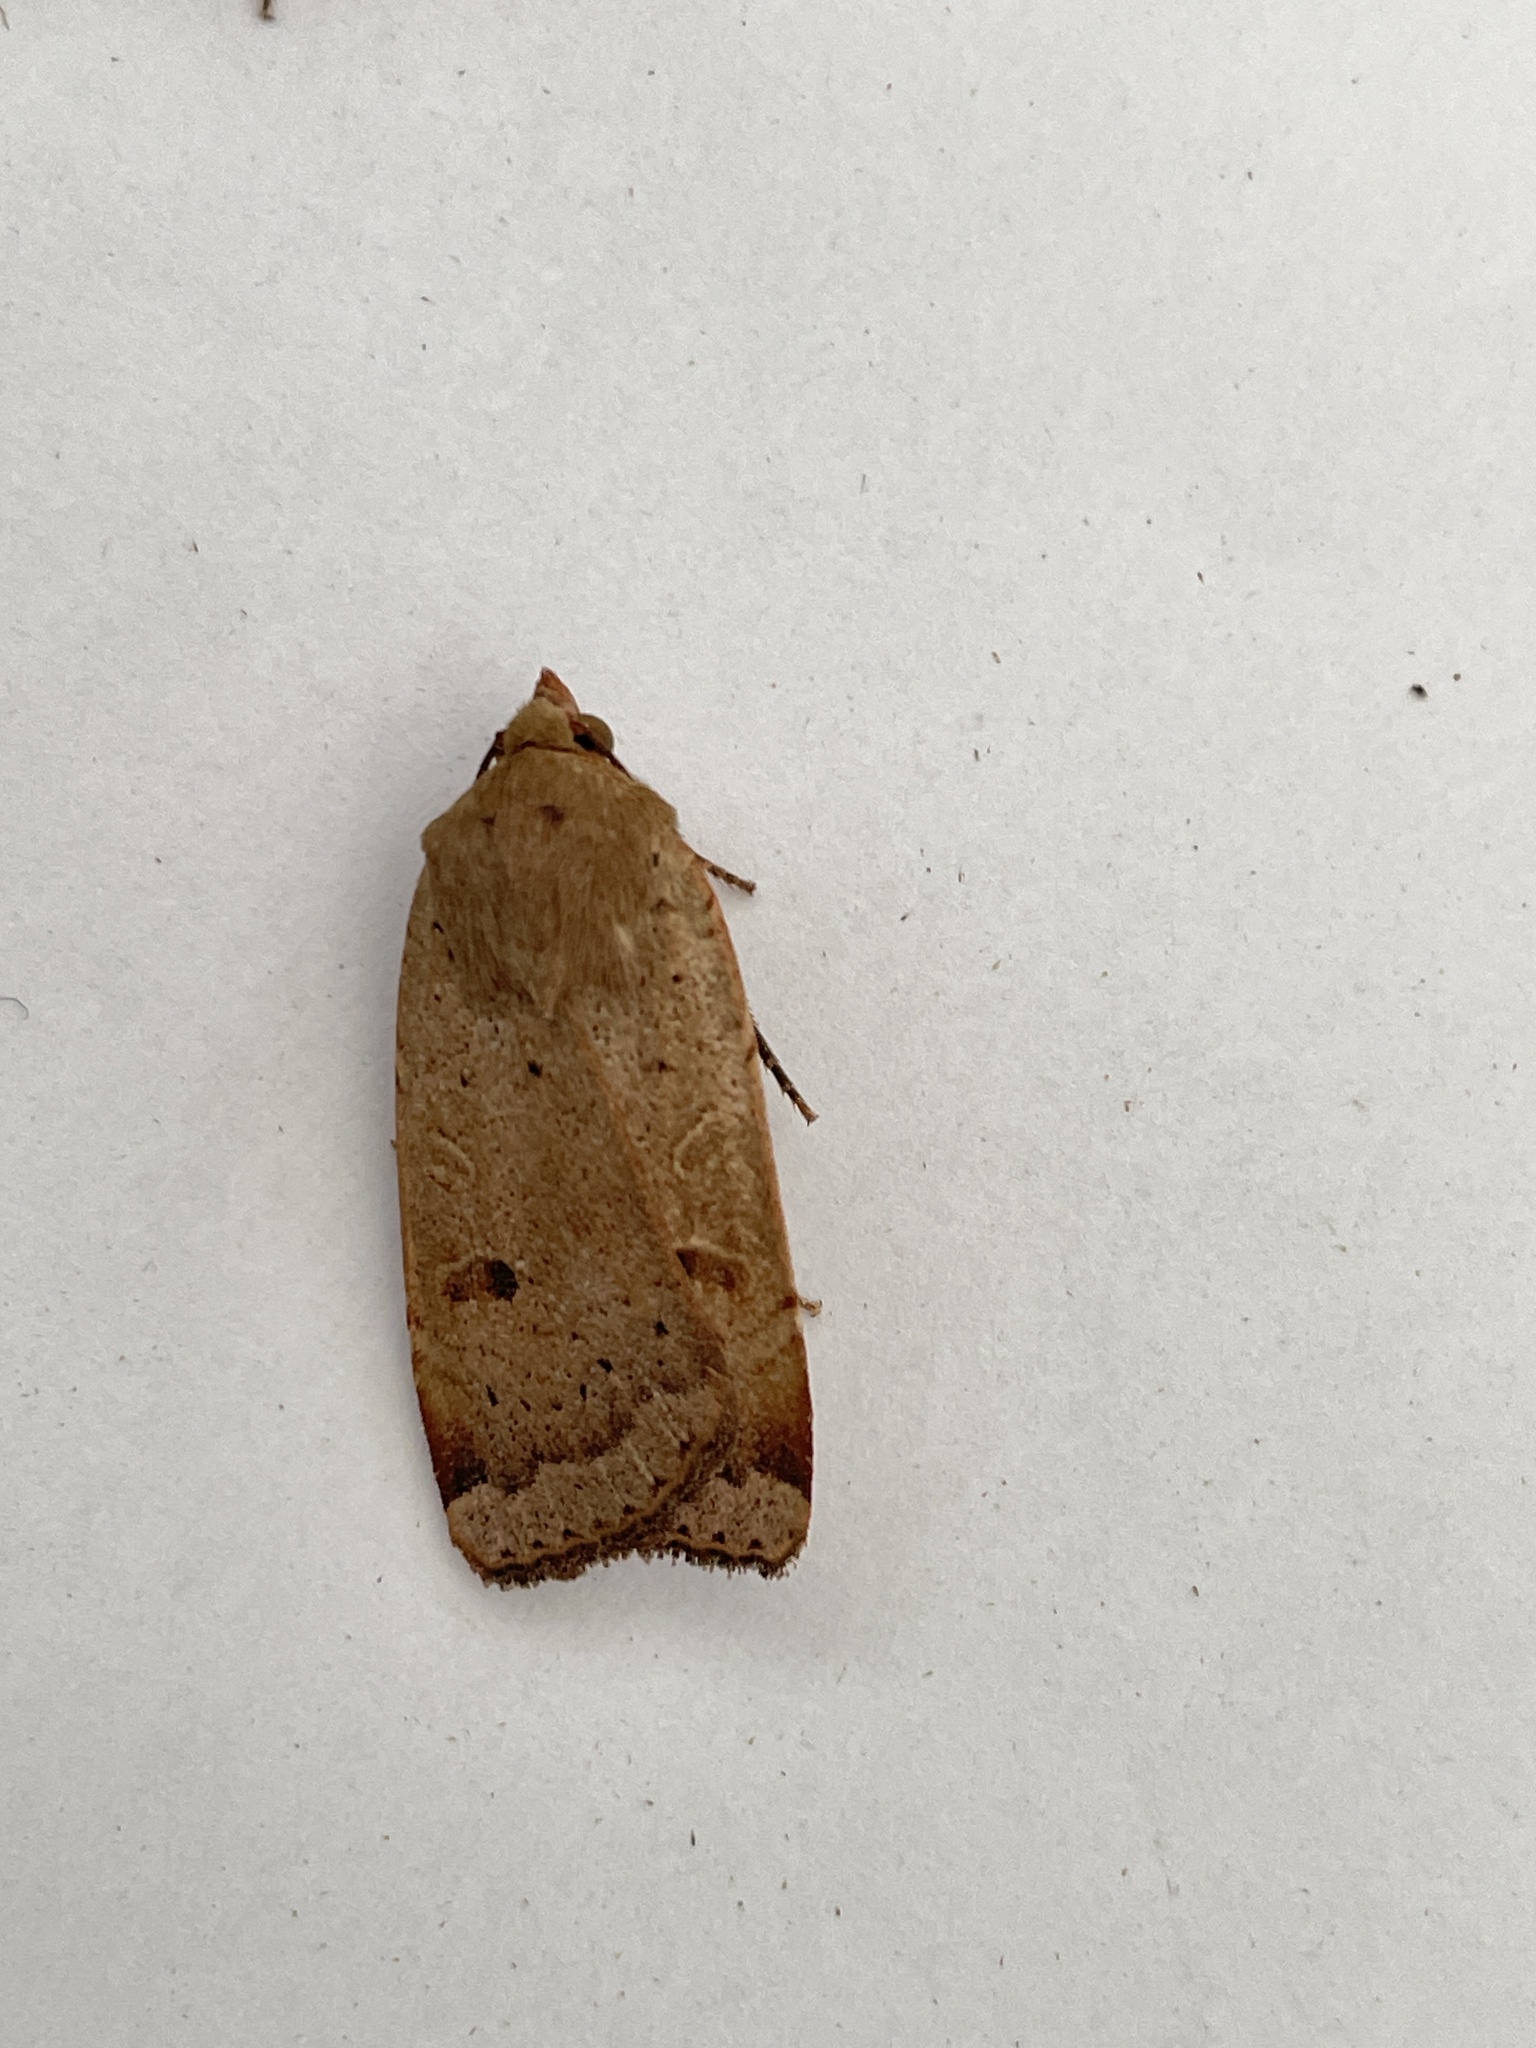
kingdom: Animalia
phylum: Arthropoda
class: Insecta
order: Lepidoptera
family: Noctuidae
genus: Noctua
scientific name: Noctua comes
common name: Lesser yellow underwing
